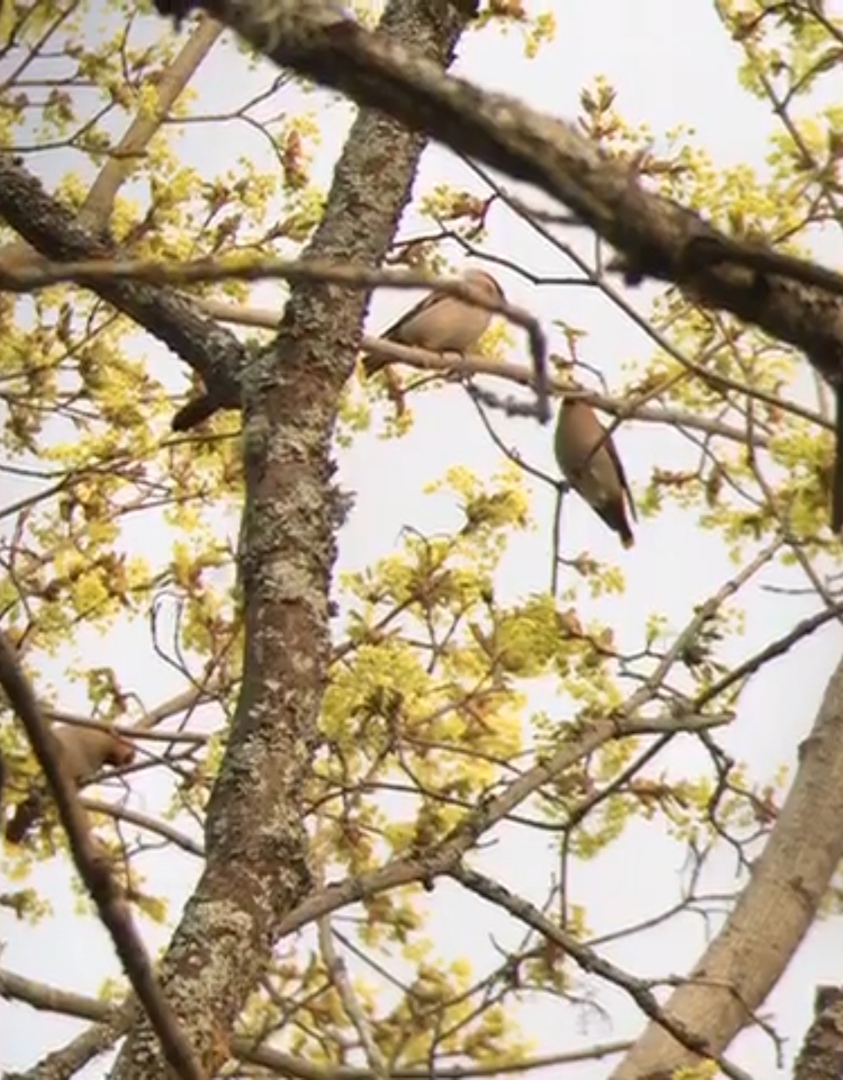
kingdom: Animalia
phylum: Chordata
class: Aves
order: Passeriformes
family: Bombycillidae
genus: Bombycilla
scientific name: Bombycilla garrulus
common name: Bohemian waxwing
